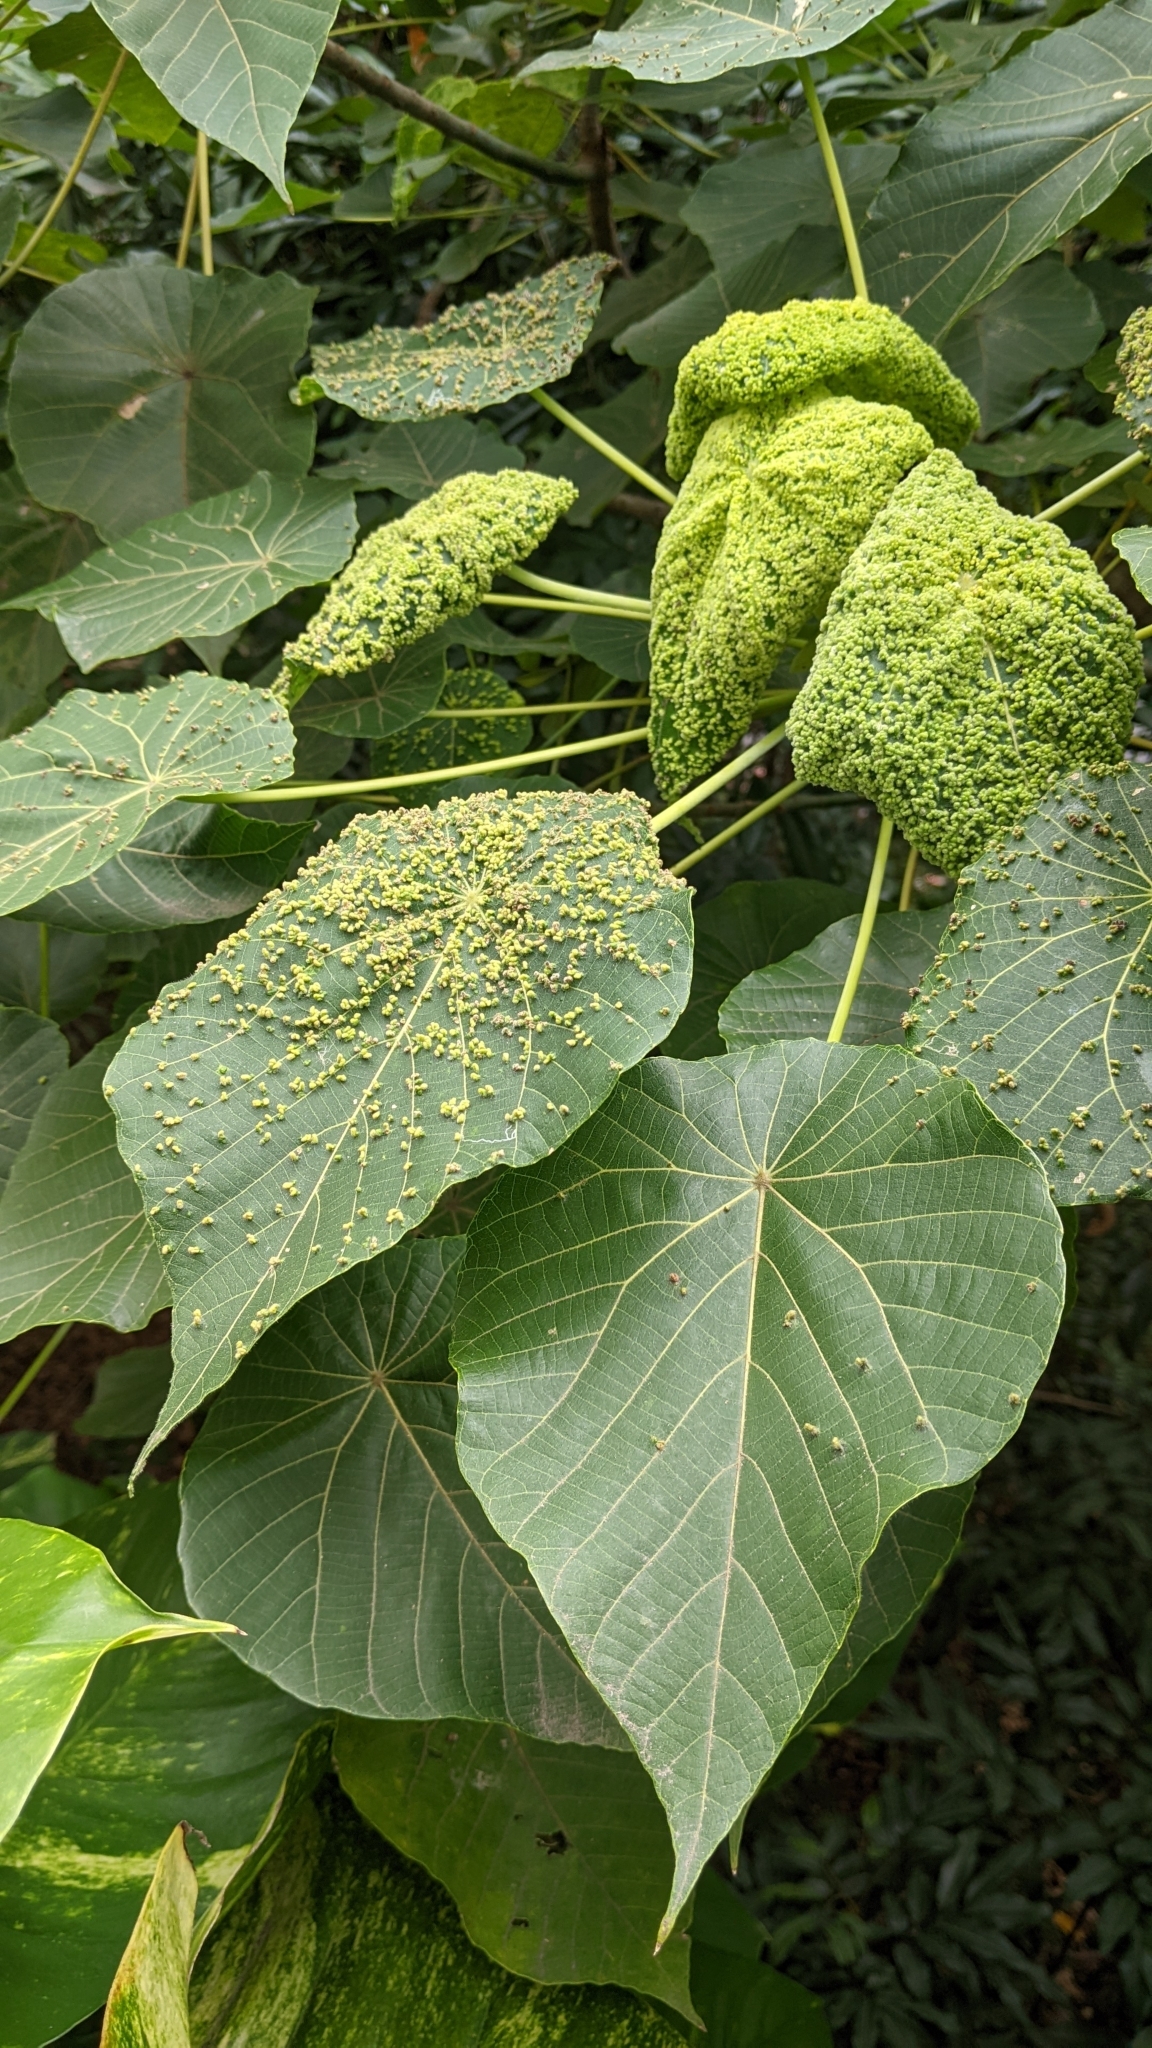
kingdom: Plantae
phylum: Tracheophyta
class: Magnoliopsida
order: Malpighiales
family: Euphorbiaceae
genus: Macaranga
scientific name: Macaranga tanarius
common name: Parasol leaf tree
